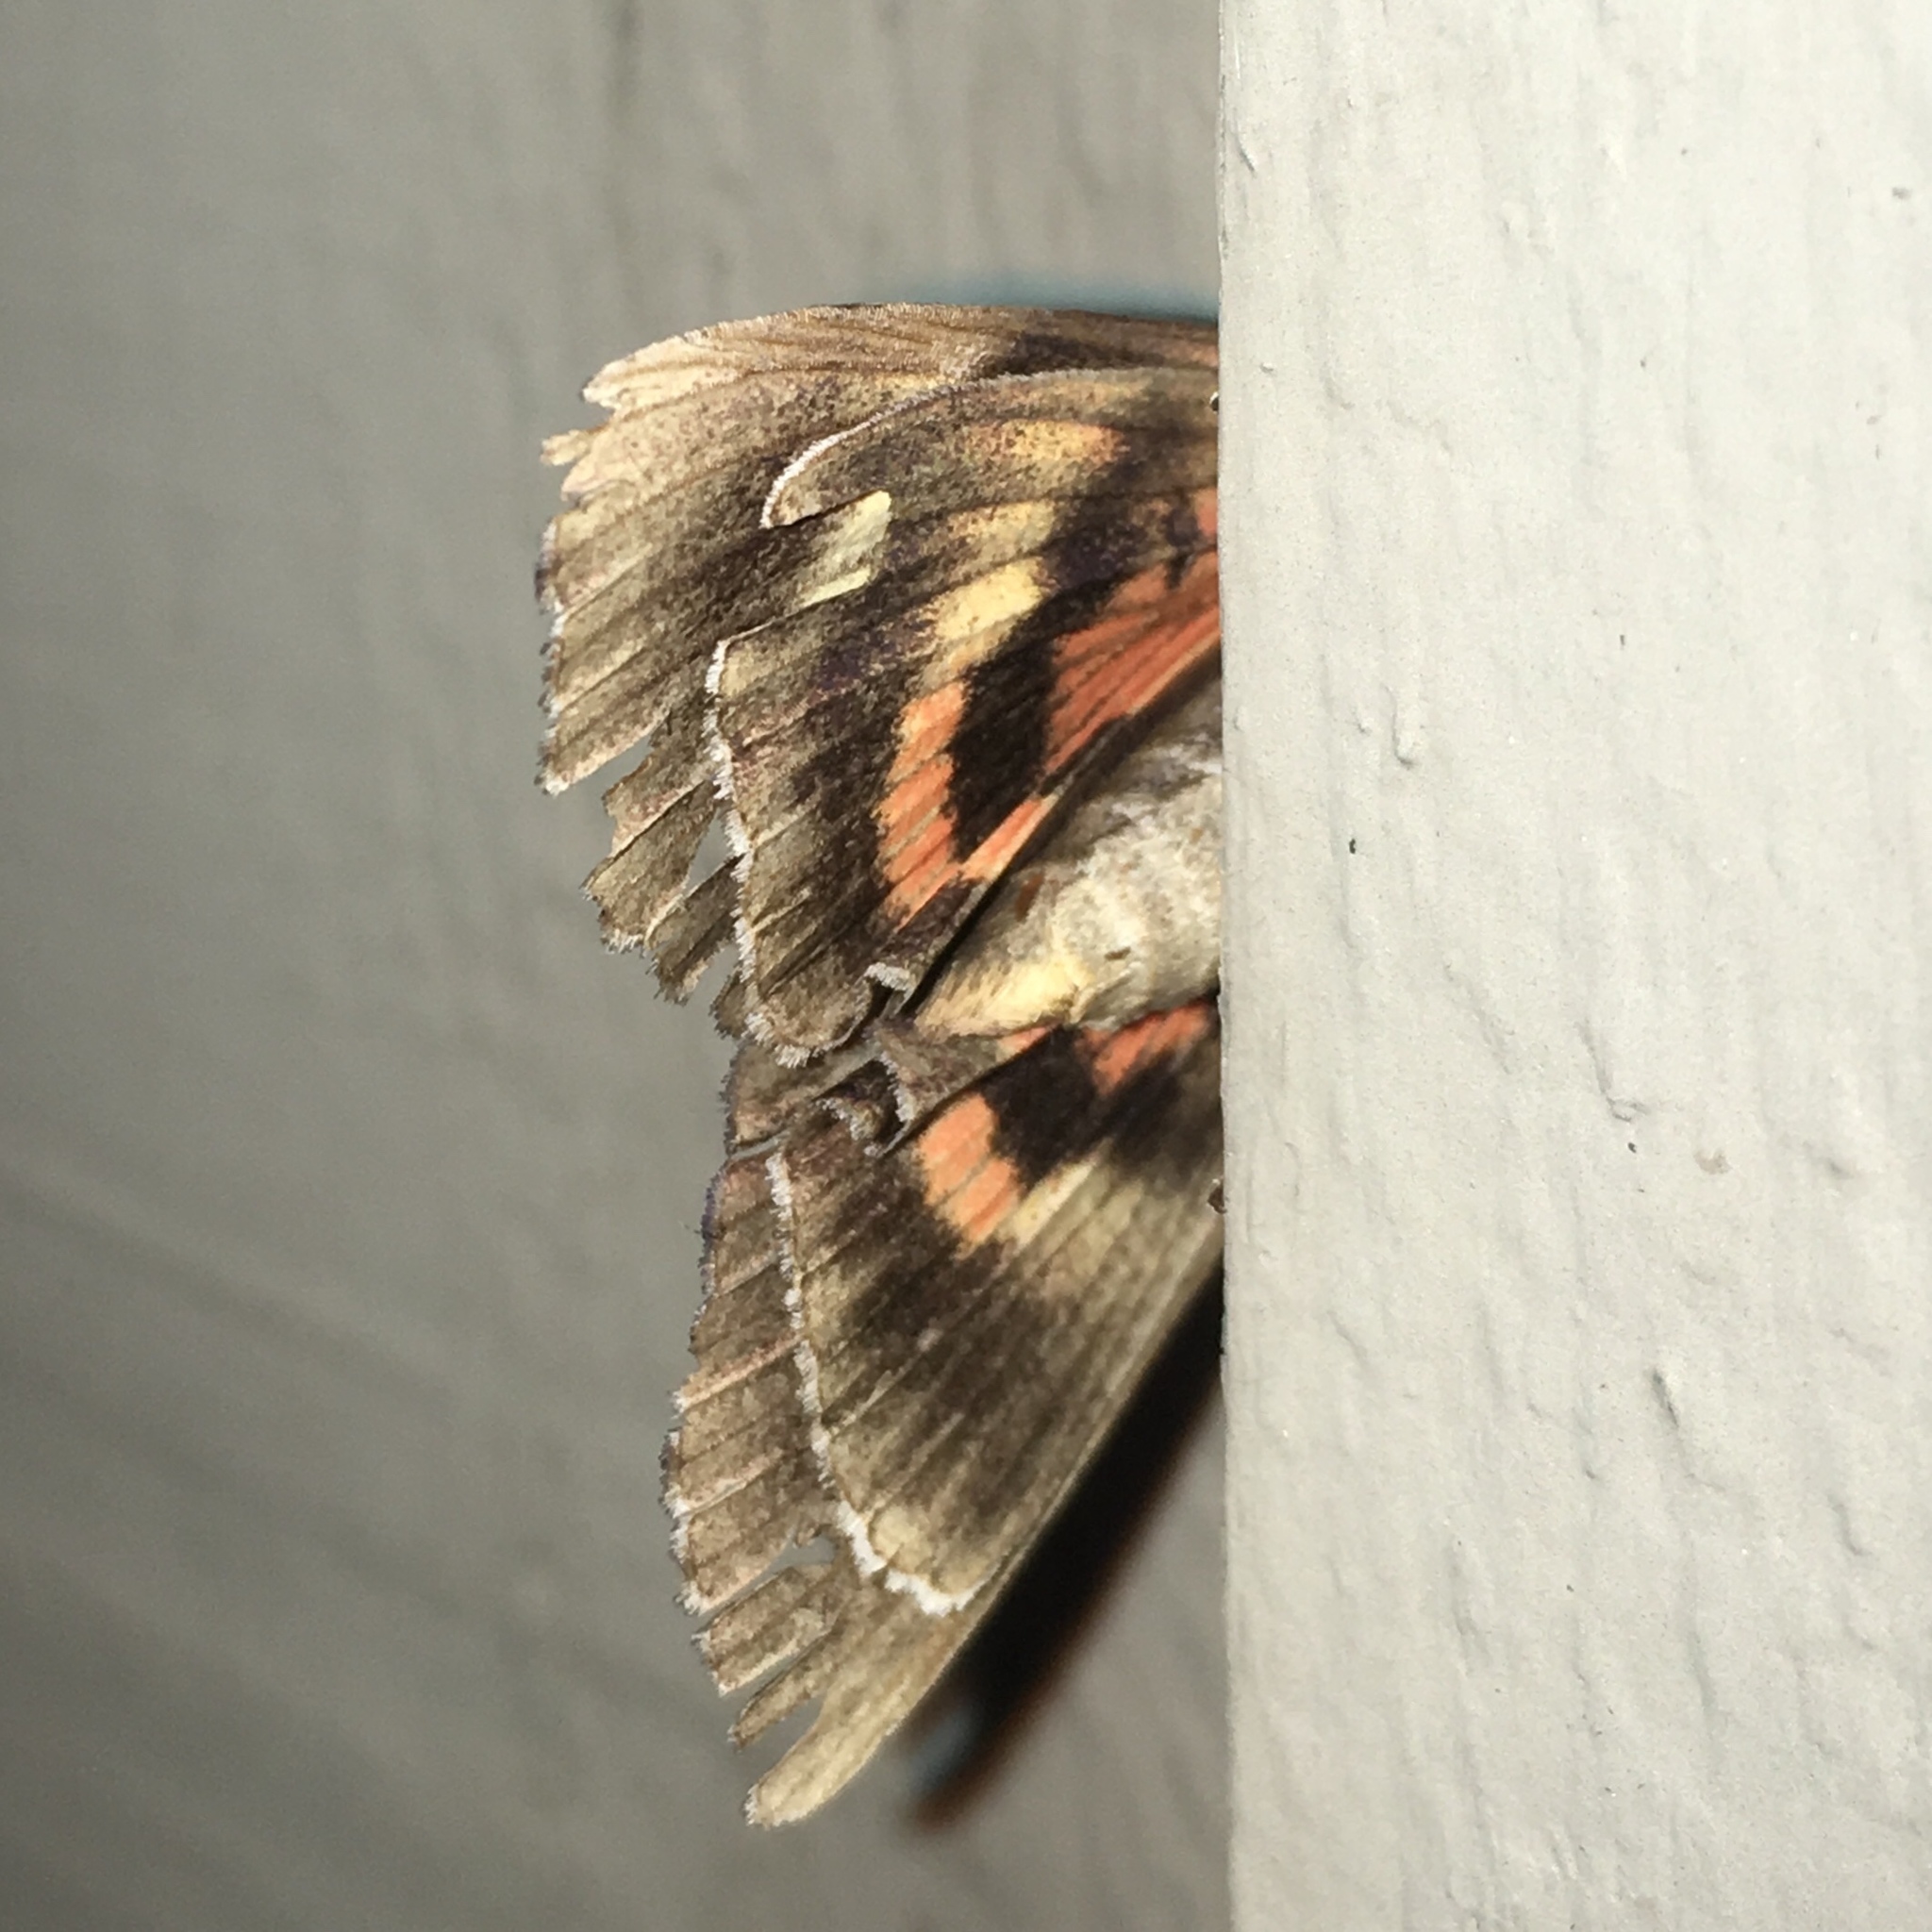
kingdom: Animalia
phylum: Arthropoda
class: Insecta
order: Lepidoptera
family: Erebidae
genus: Catocala
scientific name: Catocala ultronia
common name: Ultronia underwing
